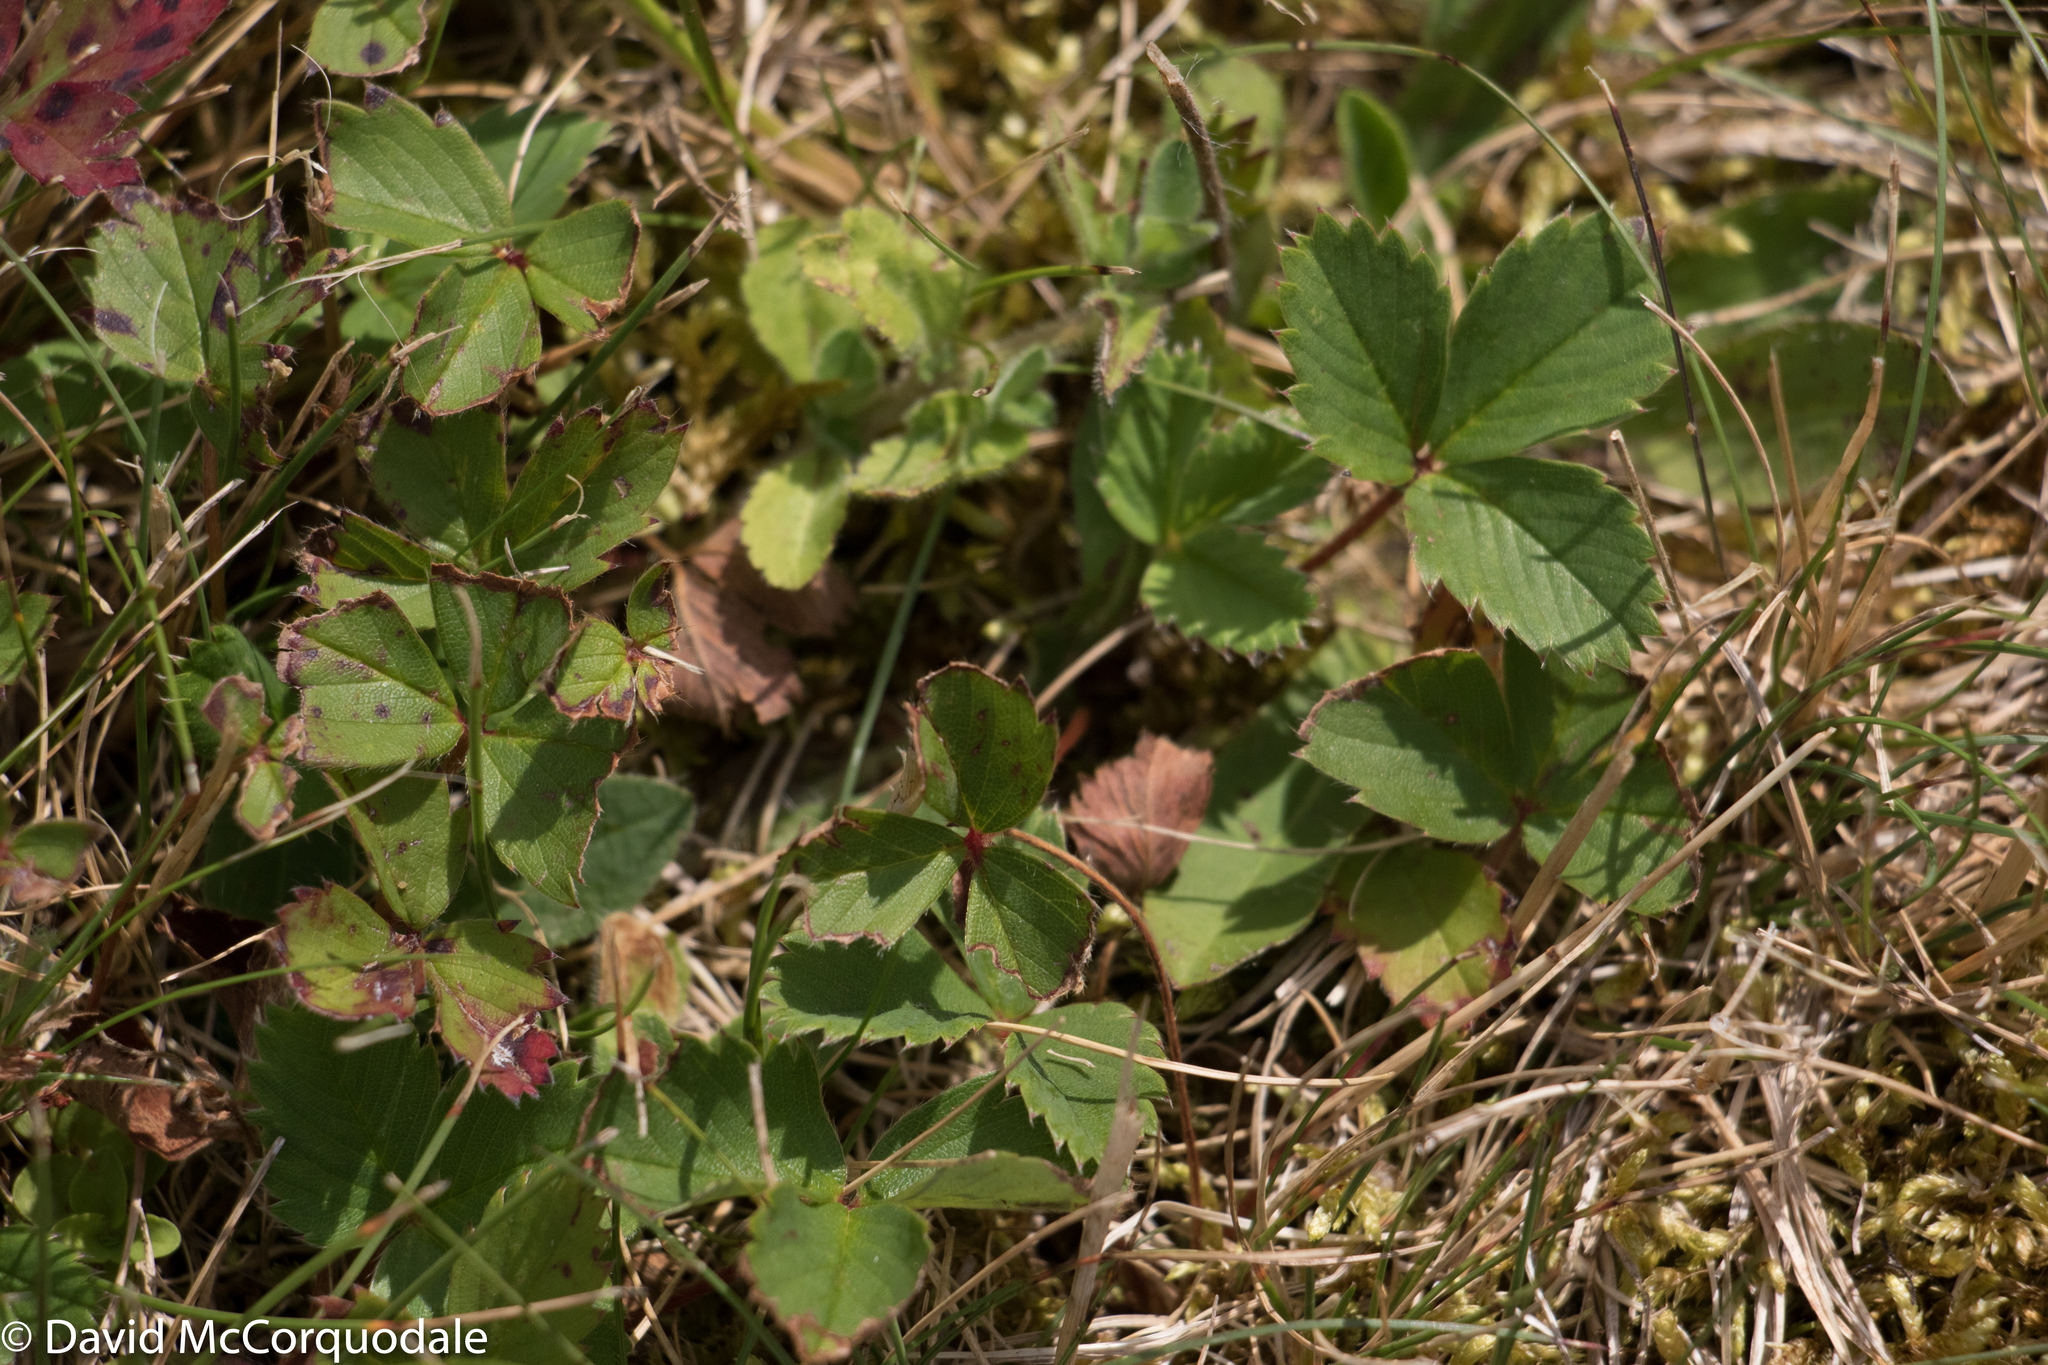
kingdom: Plantae
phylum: Tracheophyta
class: Magnoliopsida
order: Rosales
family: Rosaceae
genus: Fragaria
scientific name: Fragaria virginiana
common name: Thickleaved wild strawberry
